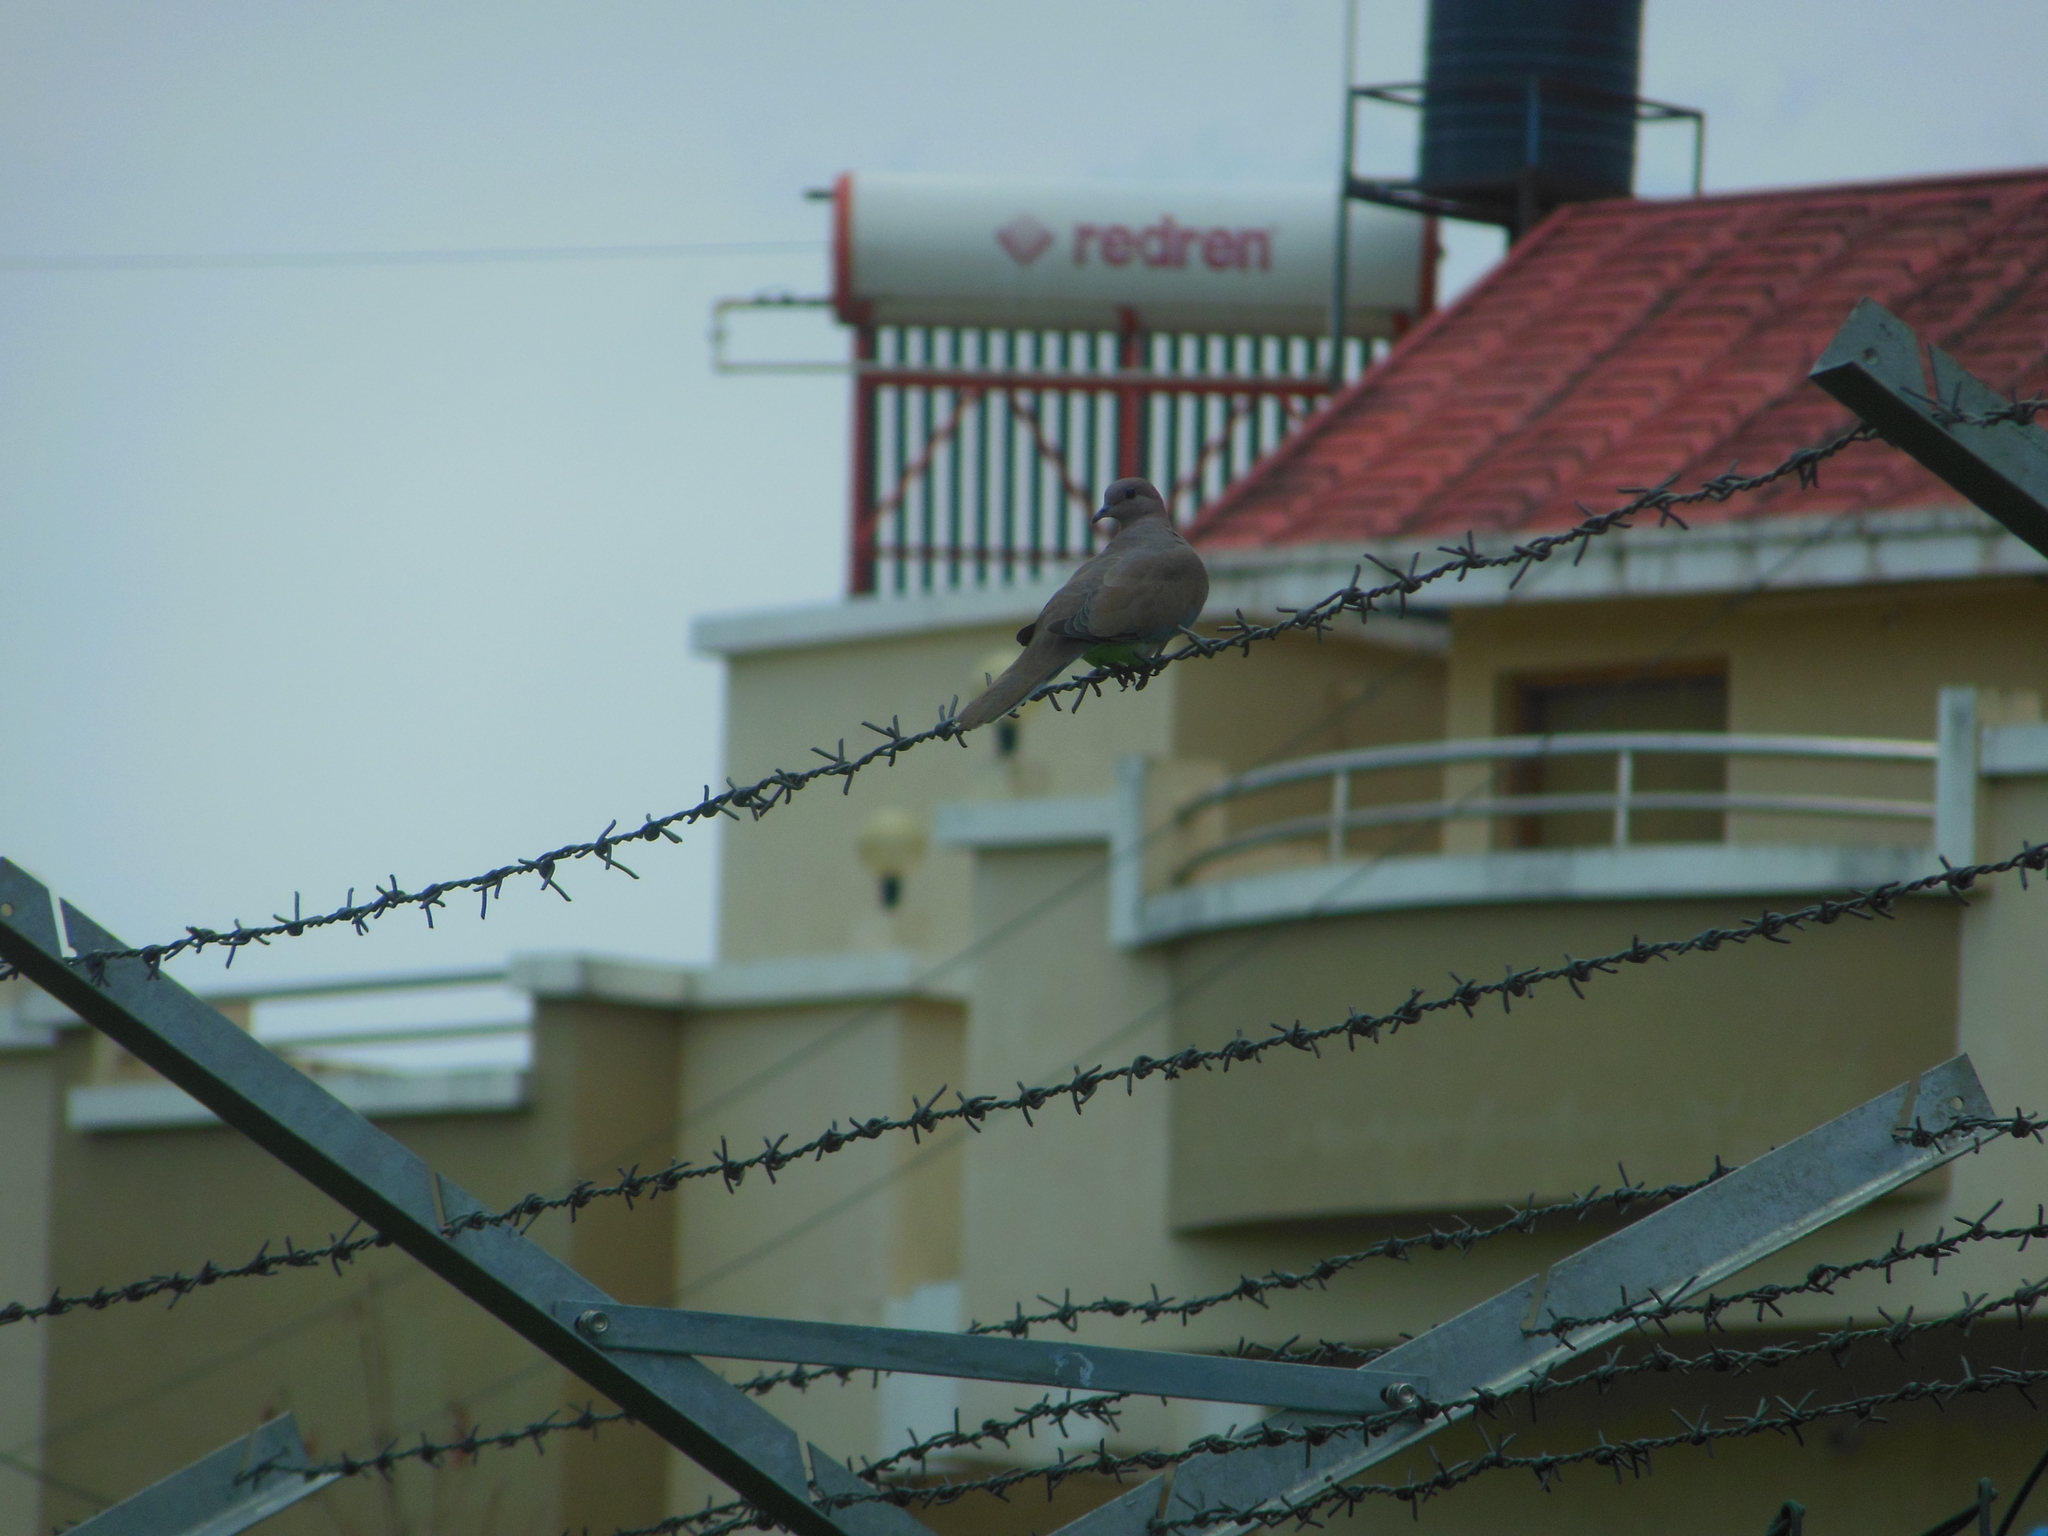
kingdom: Animalia
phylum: Chordata
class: Aves
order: Columbiformes
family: Columbidae
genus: Spilopelia
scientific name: Spilopelia senegalensis
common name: Laughing dove
